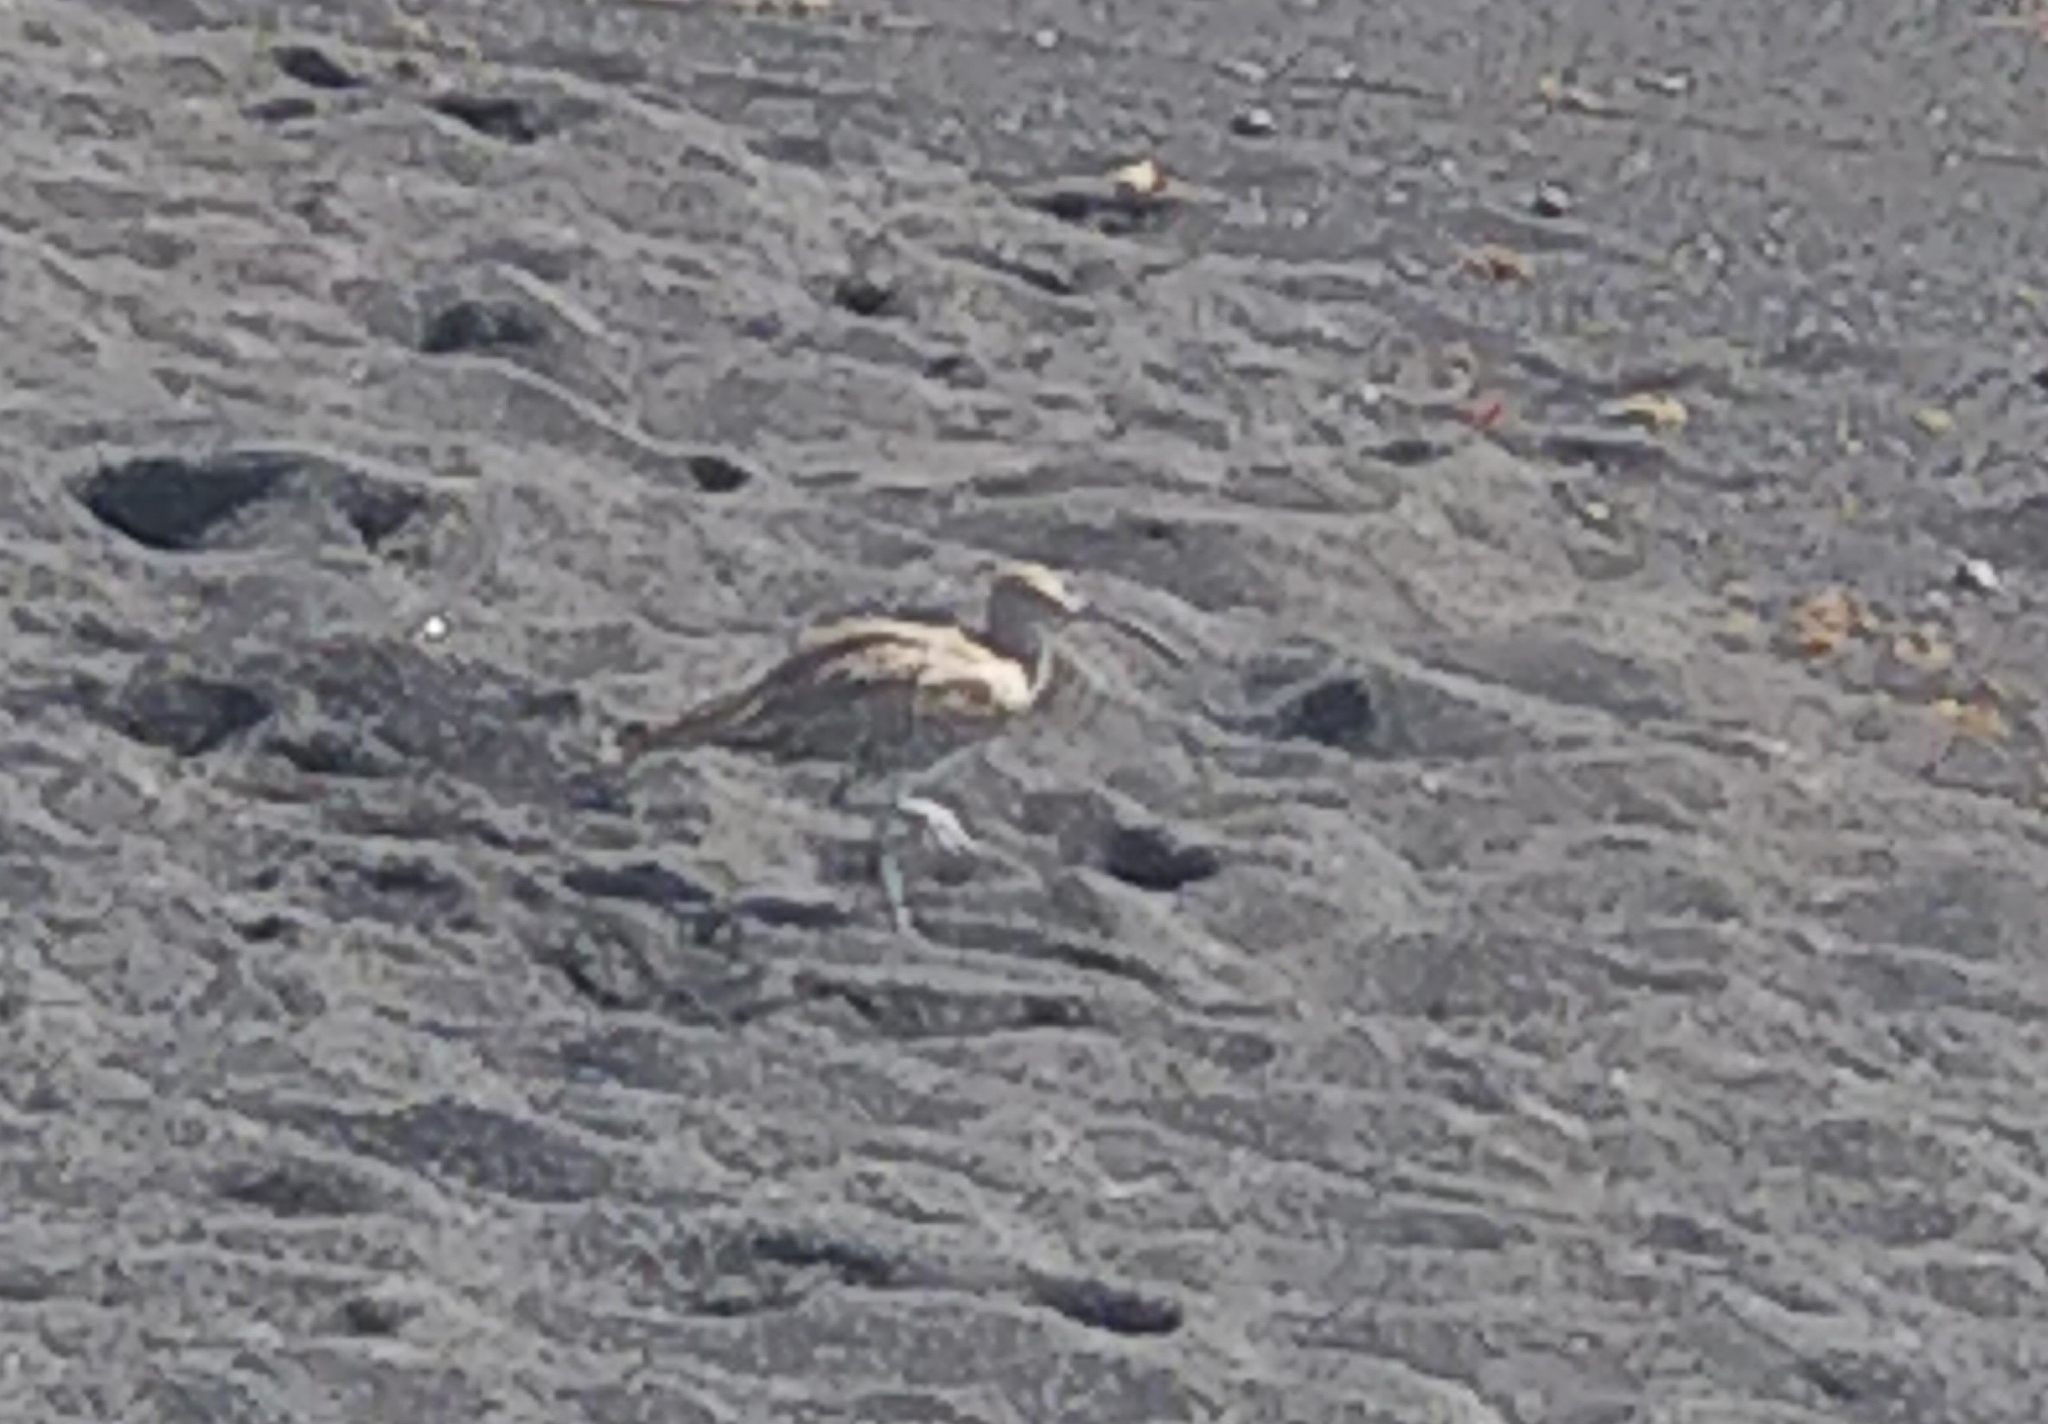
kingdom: Animalia
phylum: Chordata
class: Aves
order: Charadriiformes
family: Scolopacidae
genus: Numenius
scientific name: Numenius phaeopus
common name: Whimbrel
